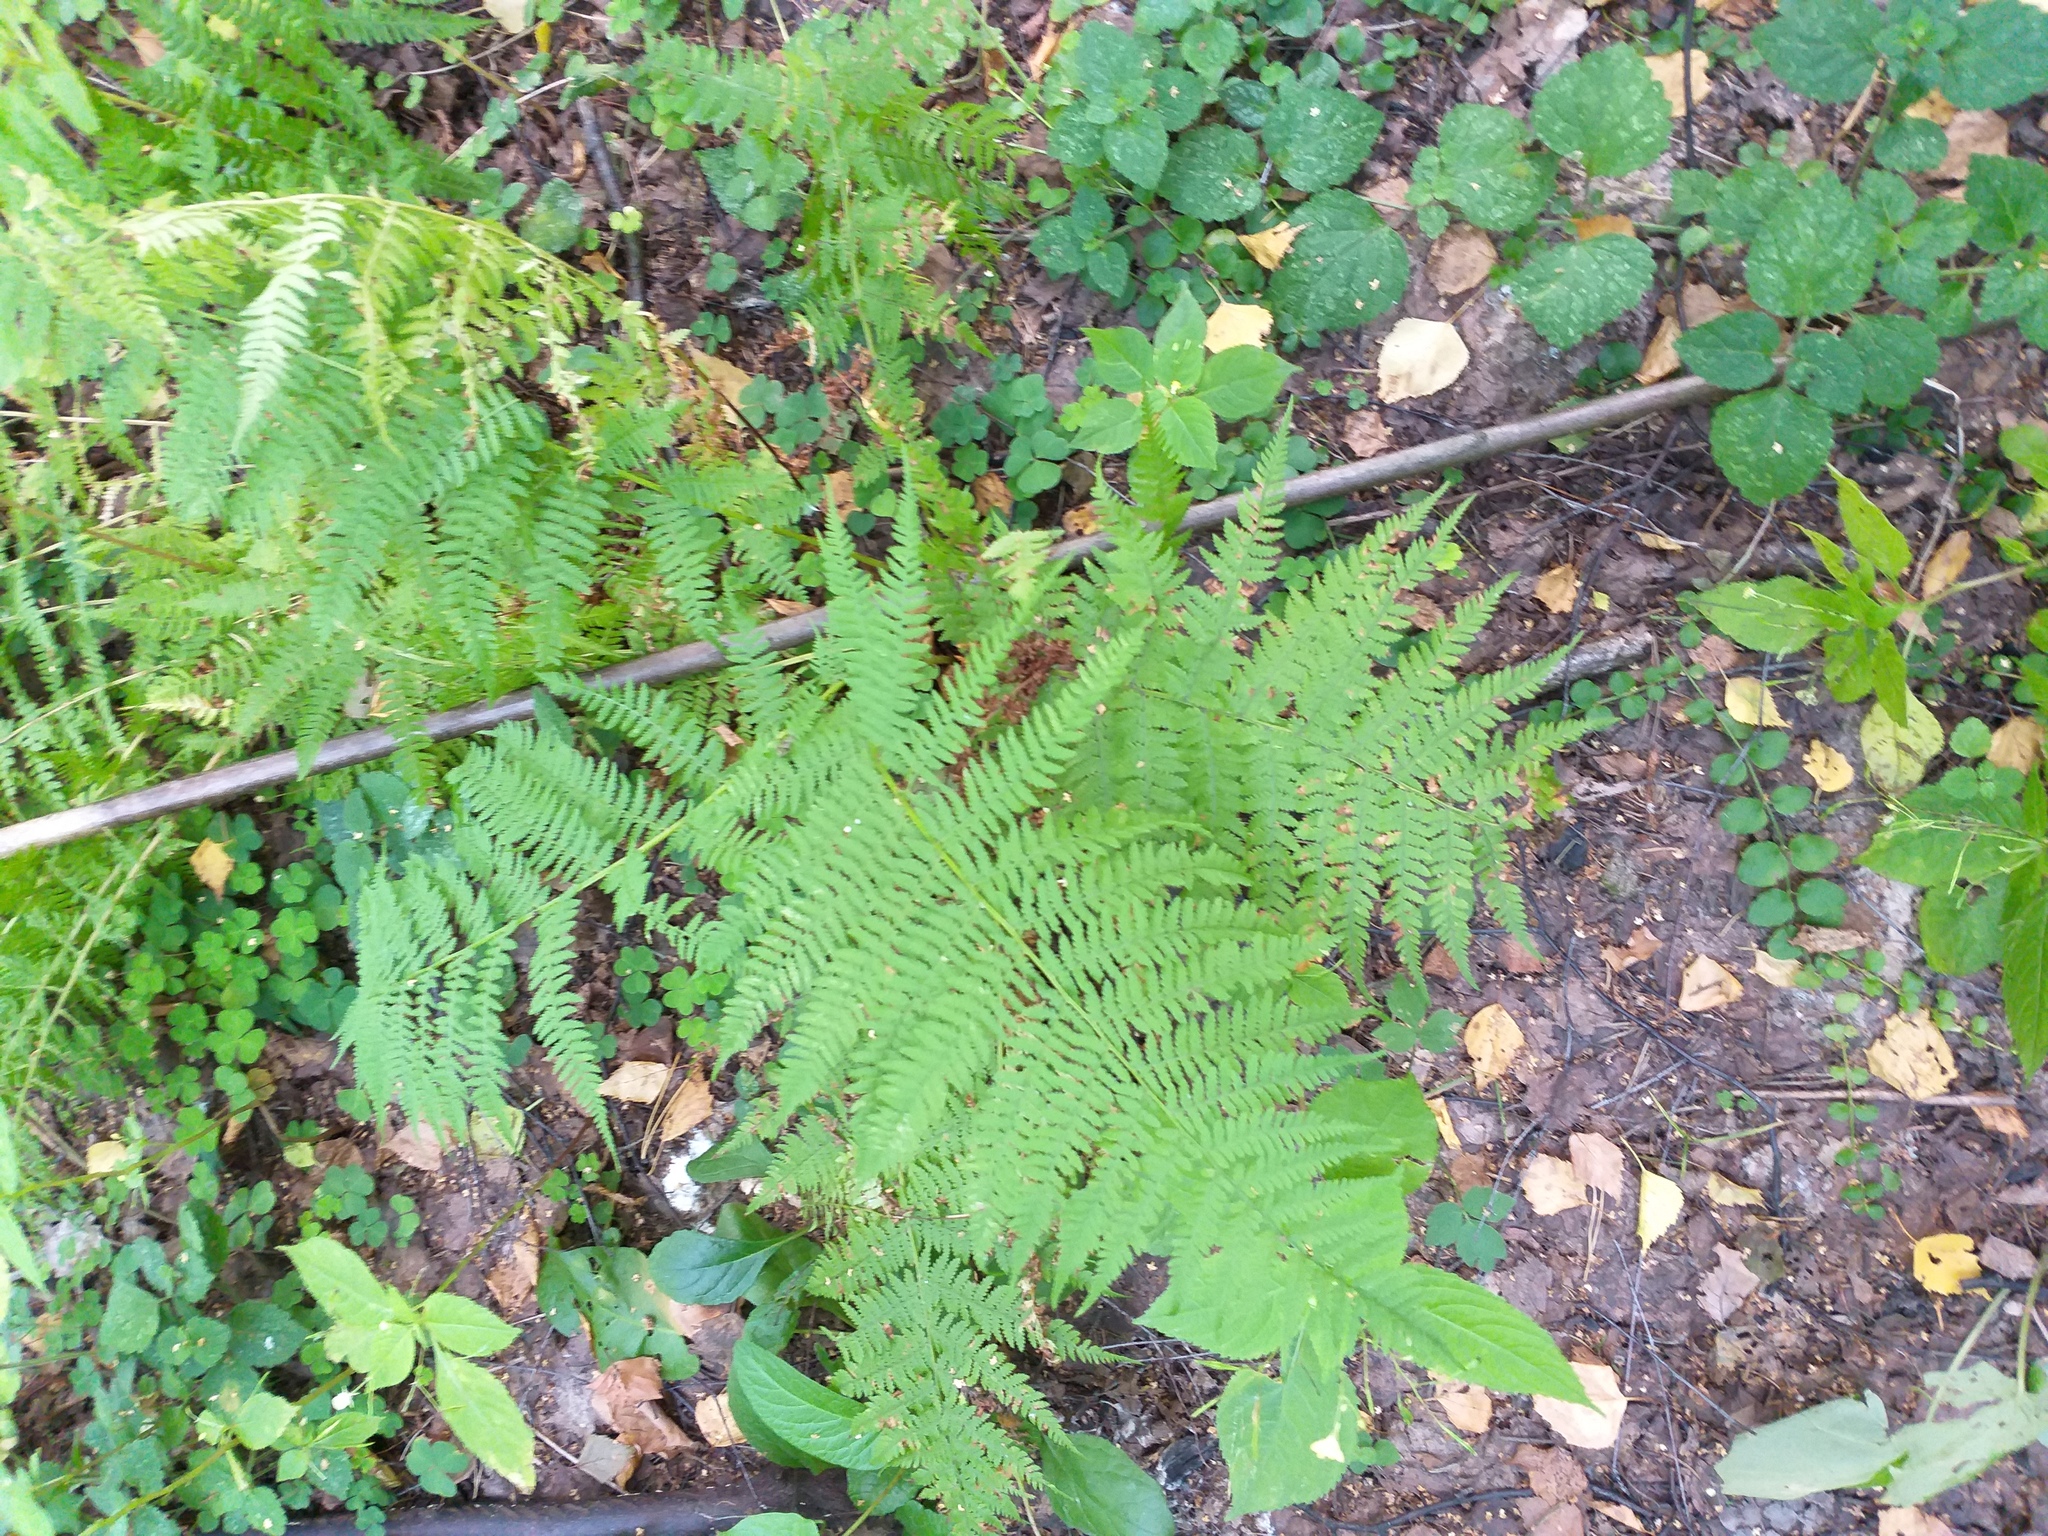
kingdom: Plantae
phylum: Tracheophyta
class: Polypodiopsida
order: Polypodiales
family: Athyriaceae
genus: Athyrium
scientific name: Athyrium filix-femina
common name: Lady fern
